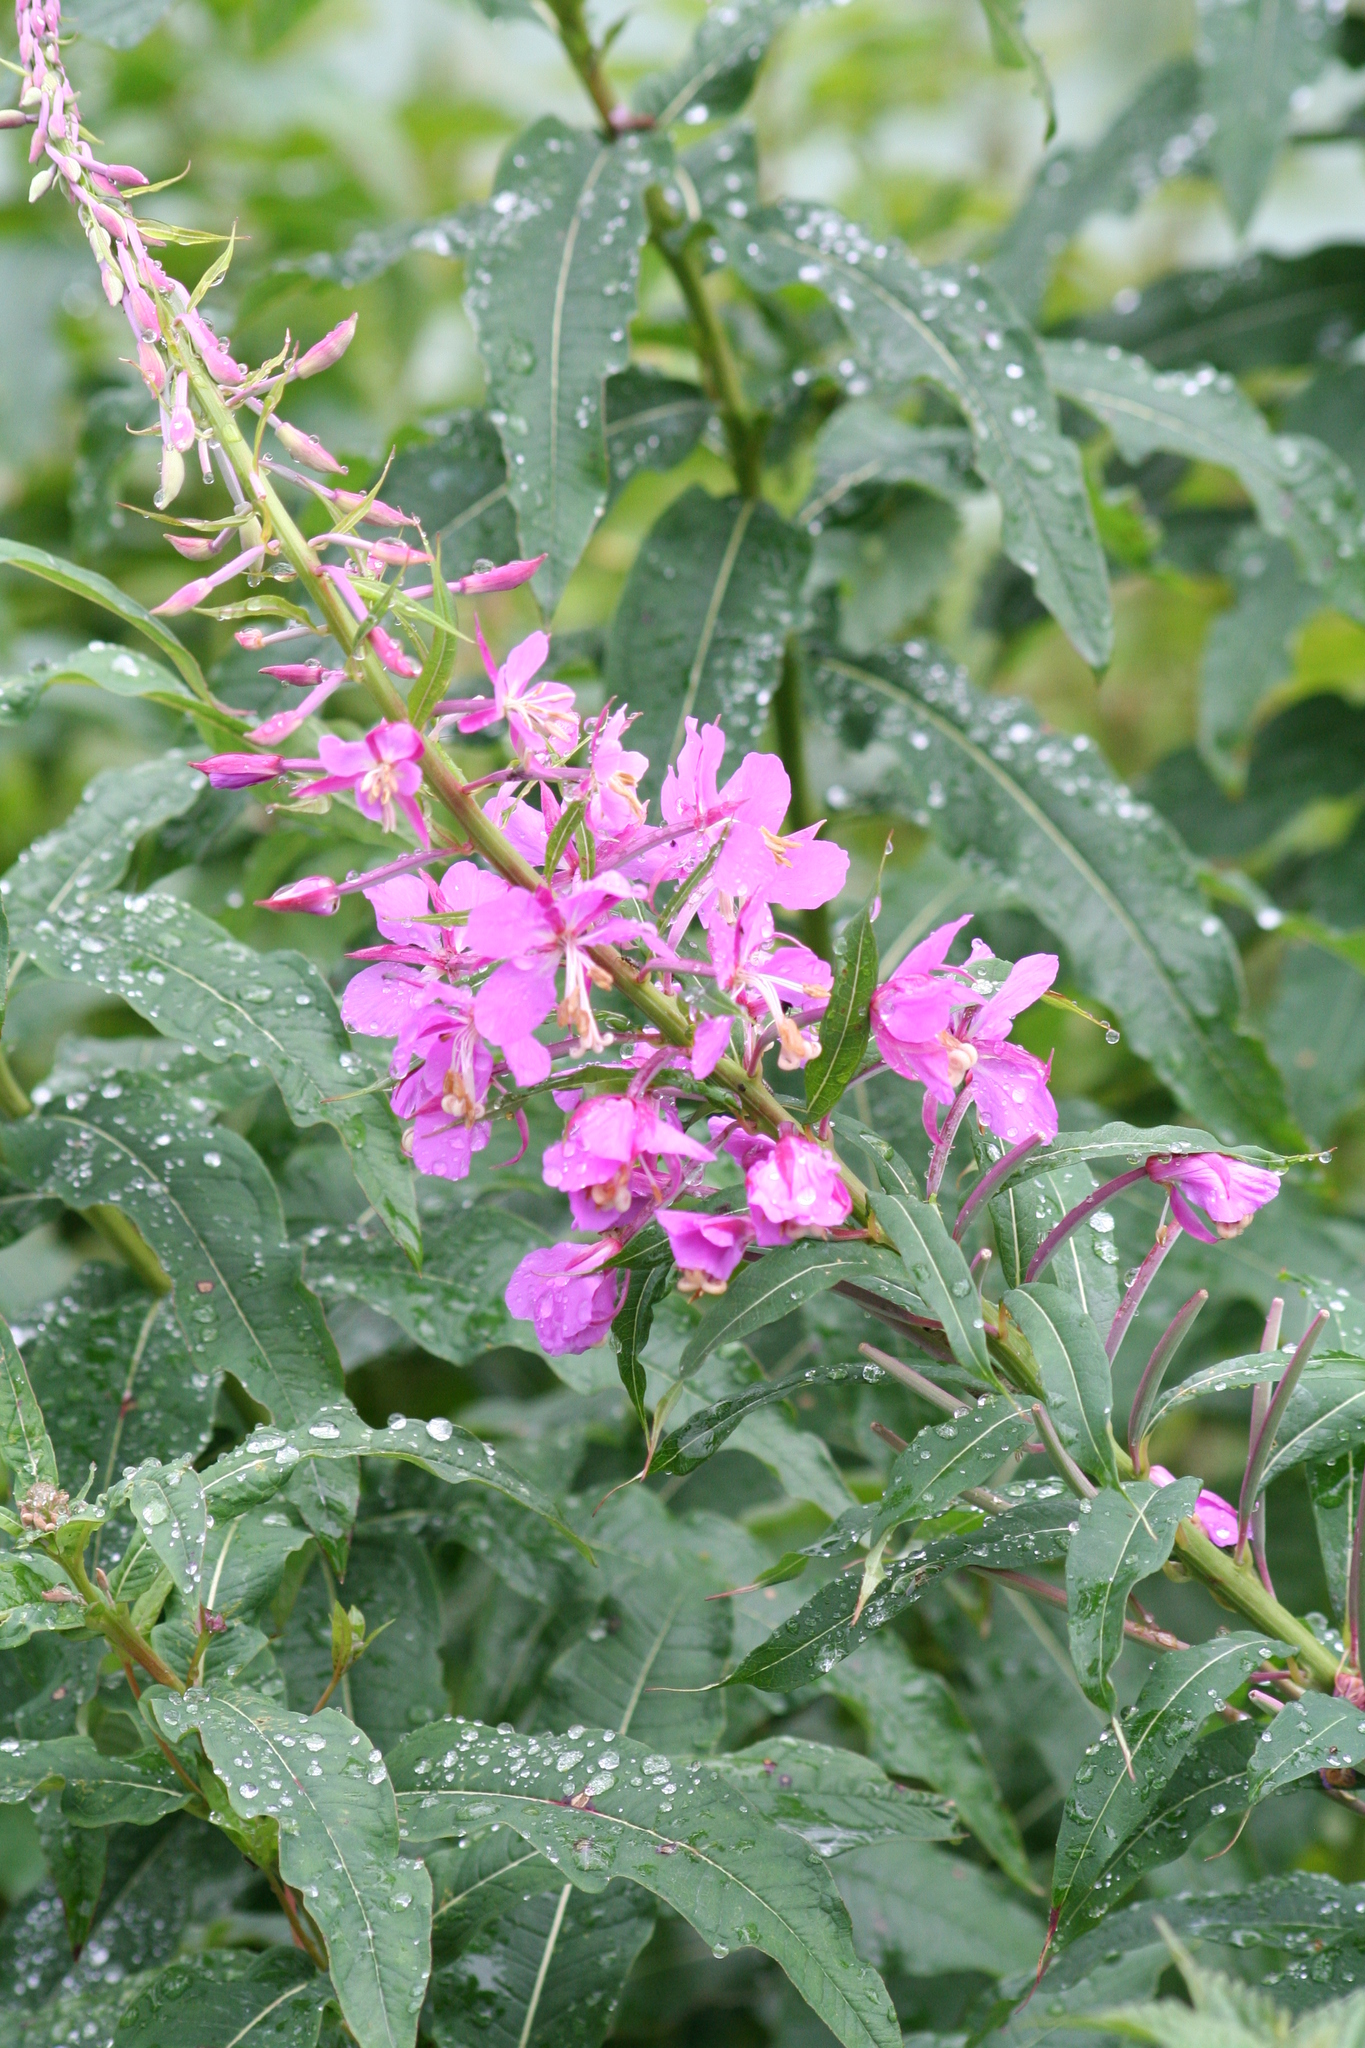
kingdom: Plantae
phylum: Tracheophyta
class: Magnoliopsida
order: Myrtales
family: Onagraceae
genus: Chamaenerion
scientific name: Chamaenerion angustifolium
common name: Fireweed
